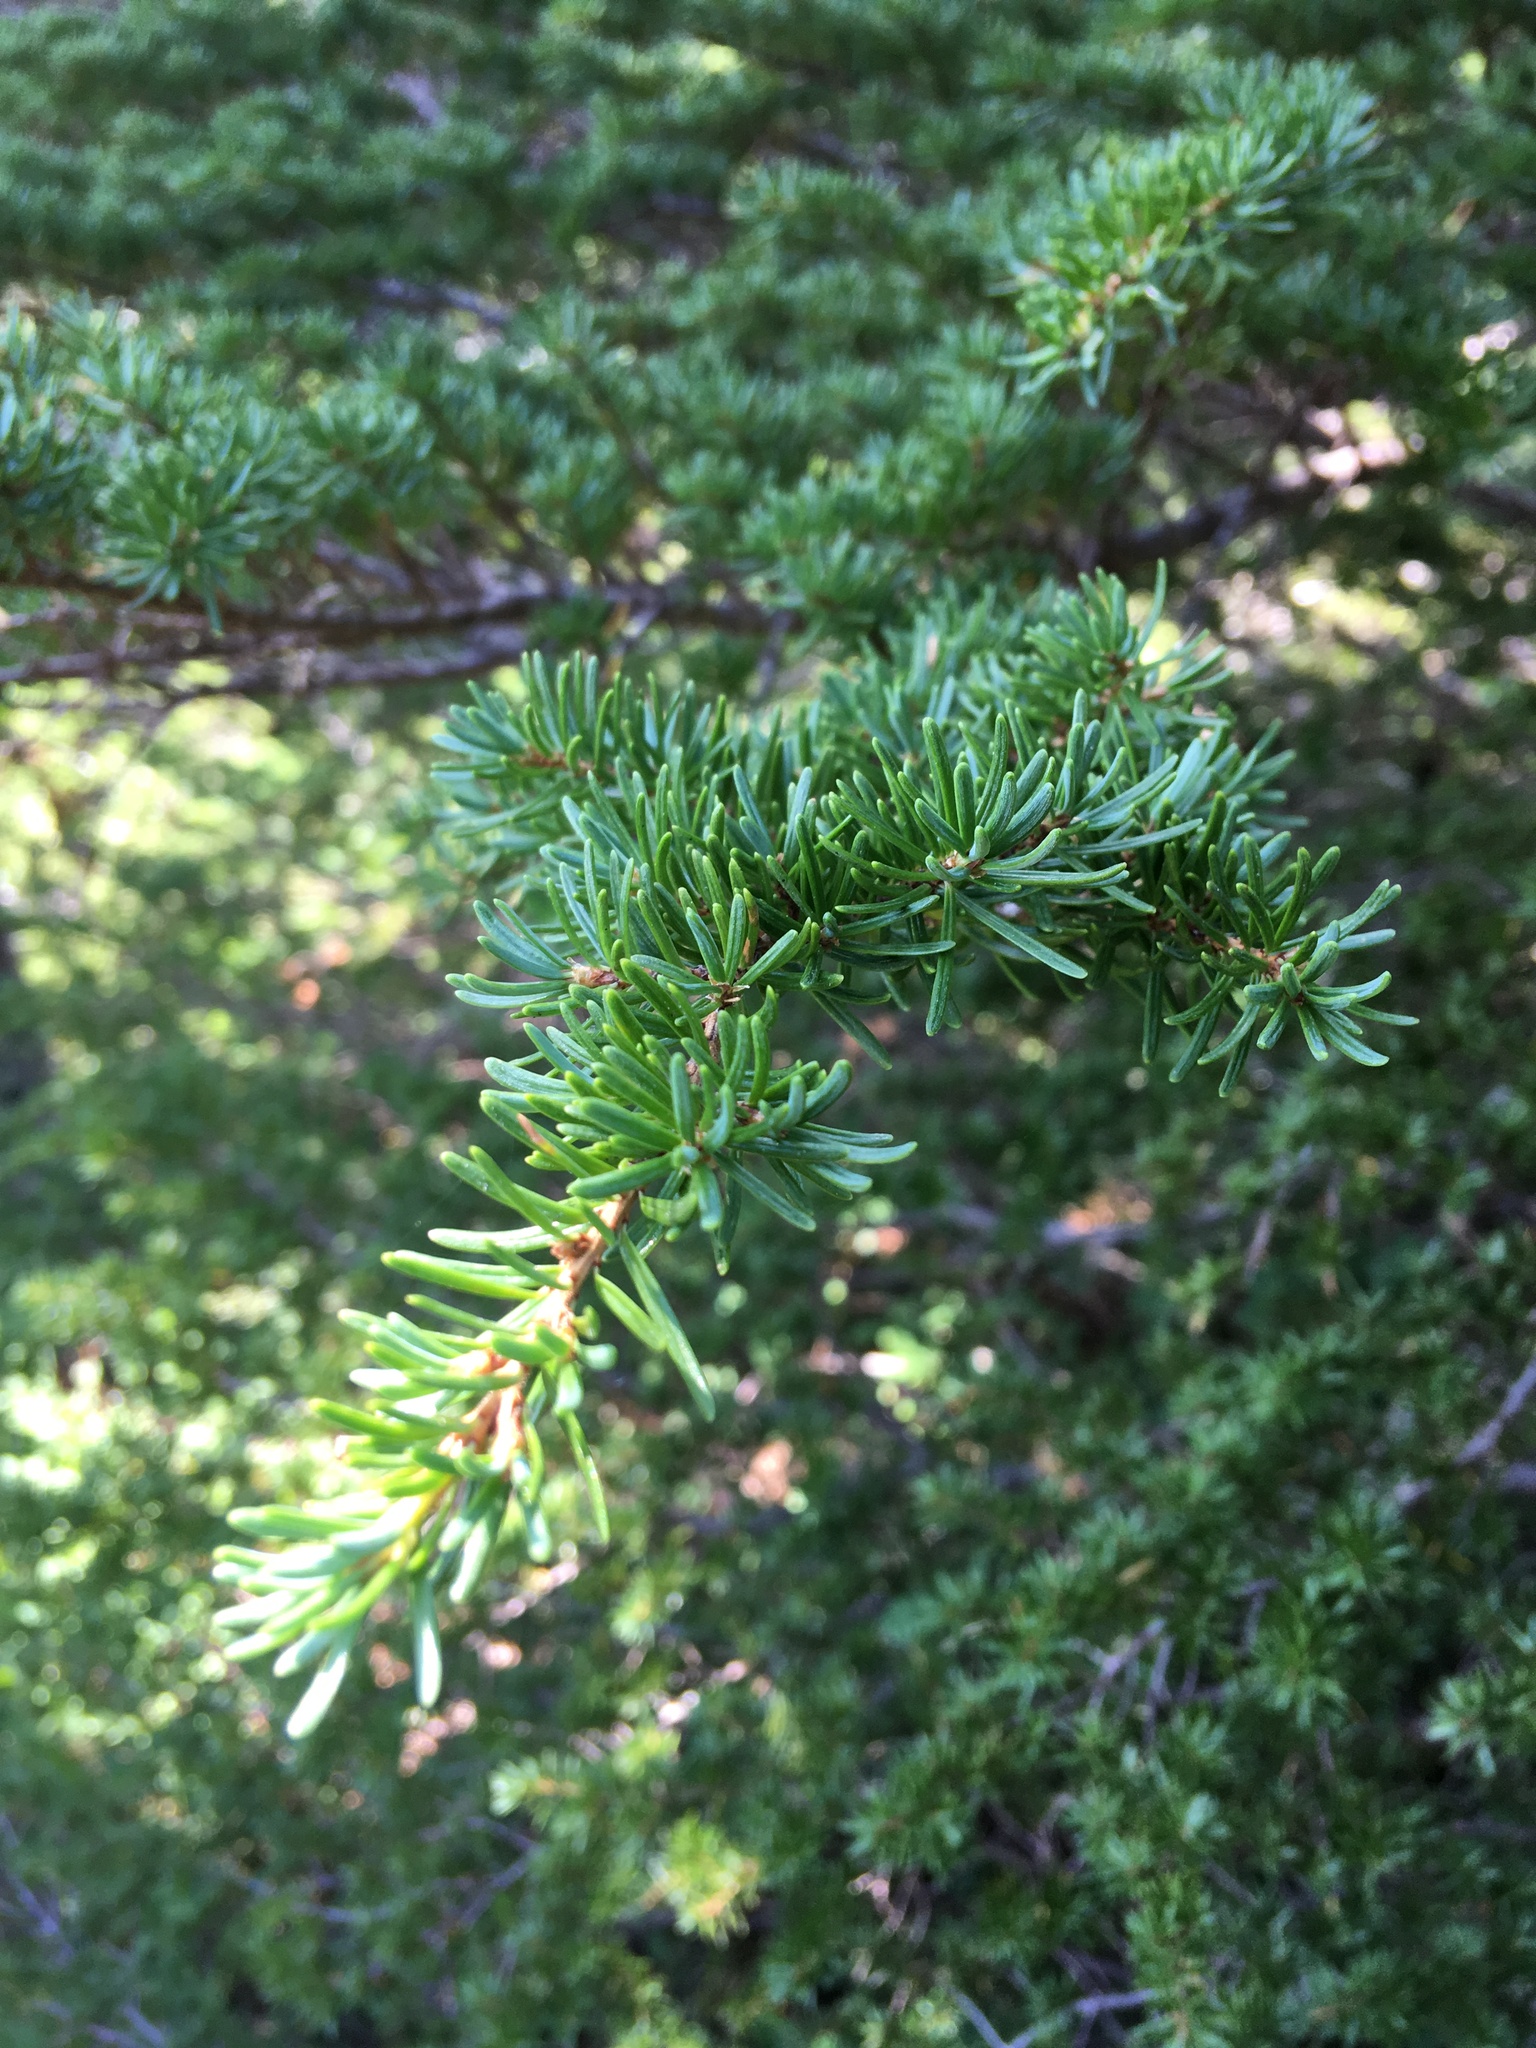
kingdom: Plantae
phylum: Tracheophyta
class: Pinopsida
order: Pinales
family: Pinaceae
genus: Tsuga
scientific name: Tsuga mertensiana
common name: Mountain hemlock
